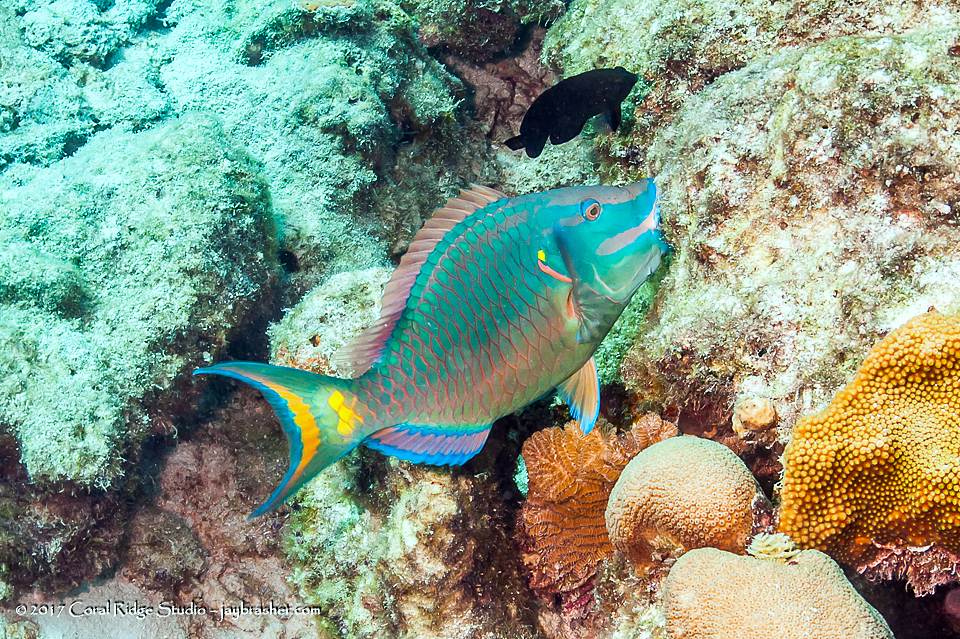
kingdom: Animalia
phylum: Chordata
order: Perciformes
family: Scaridae
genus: Sparisoma
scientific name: Sparisoma viride
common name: Stoplight parrotfish
